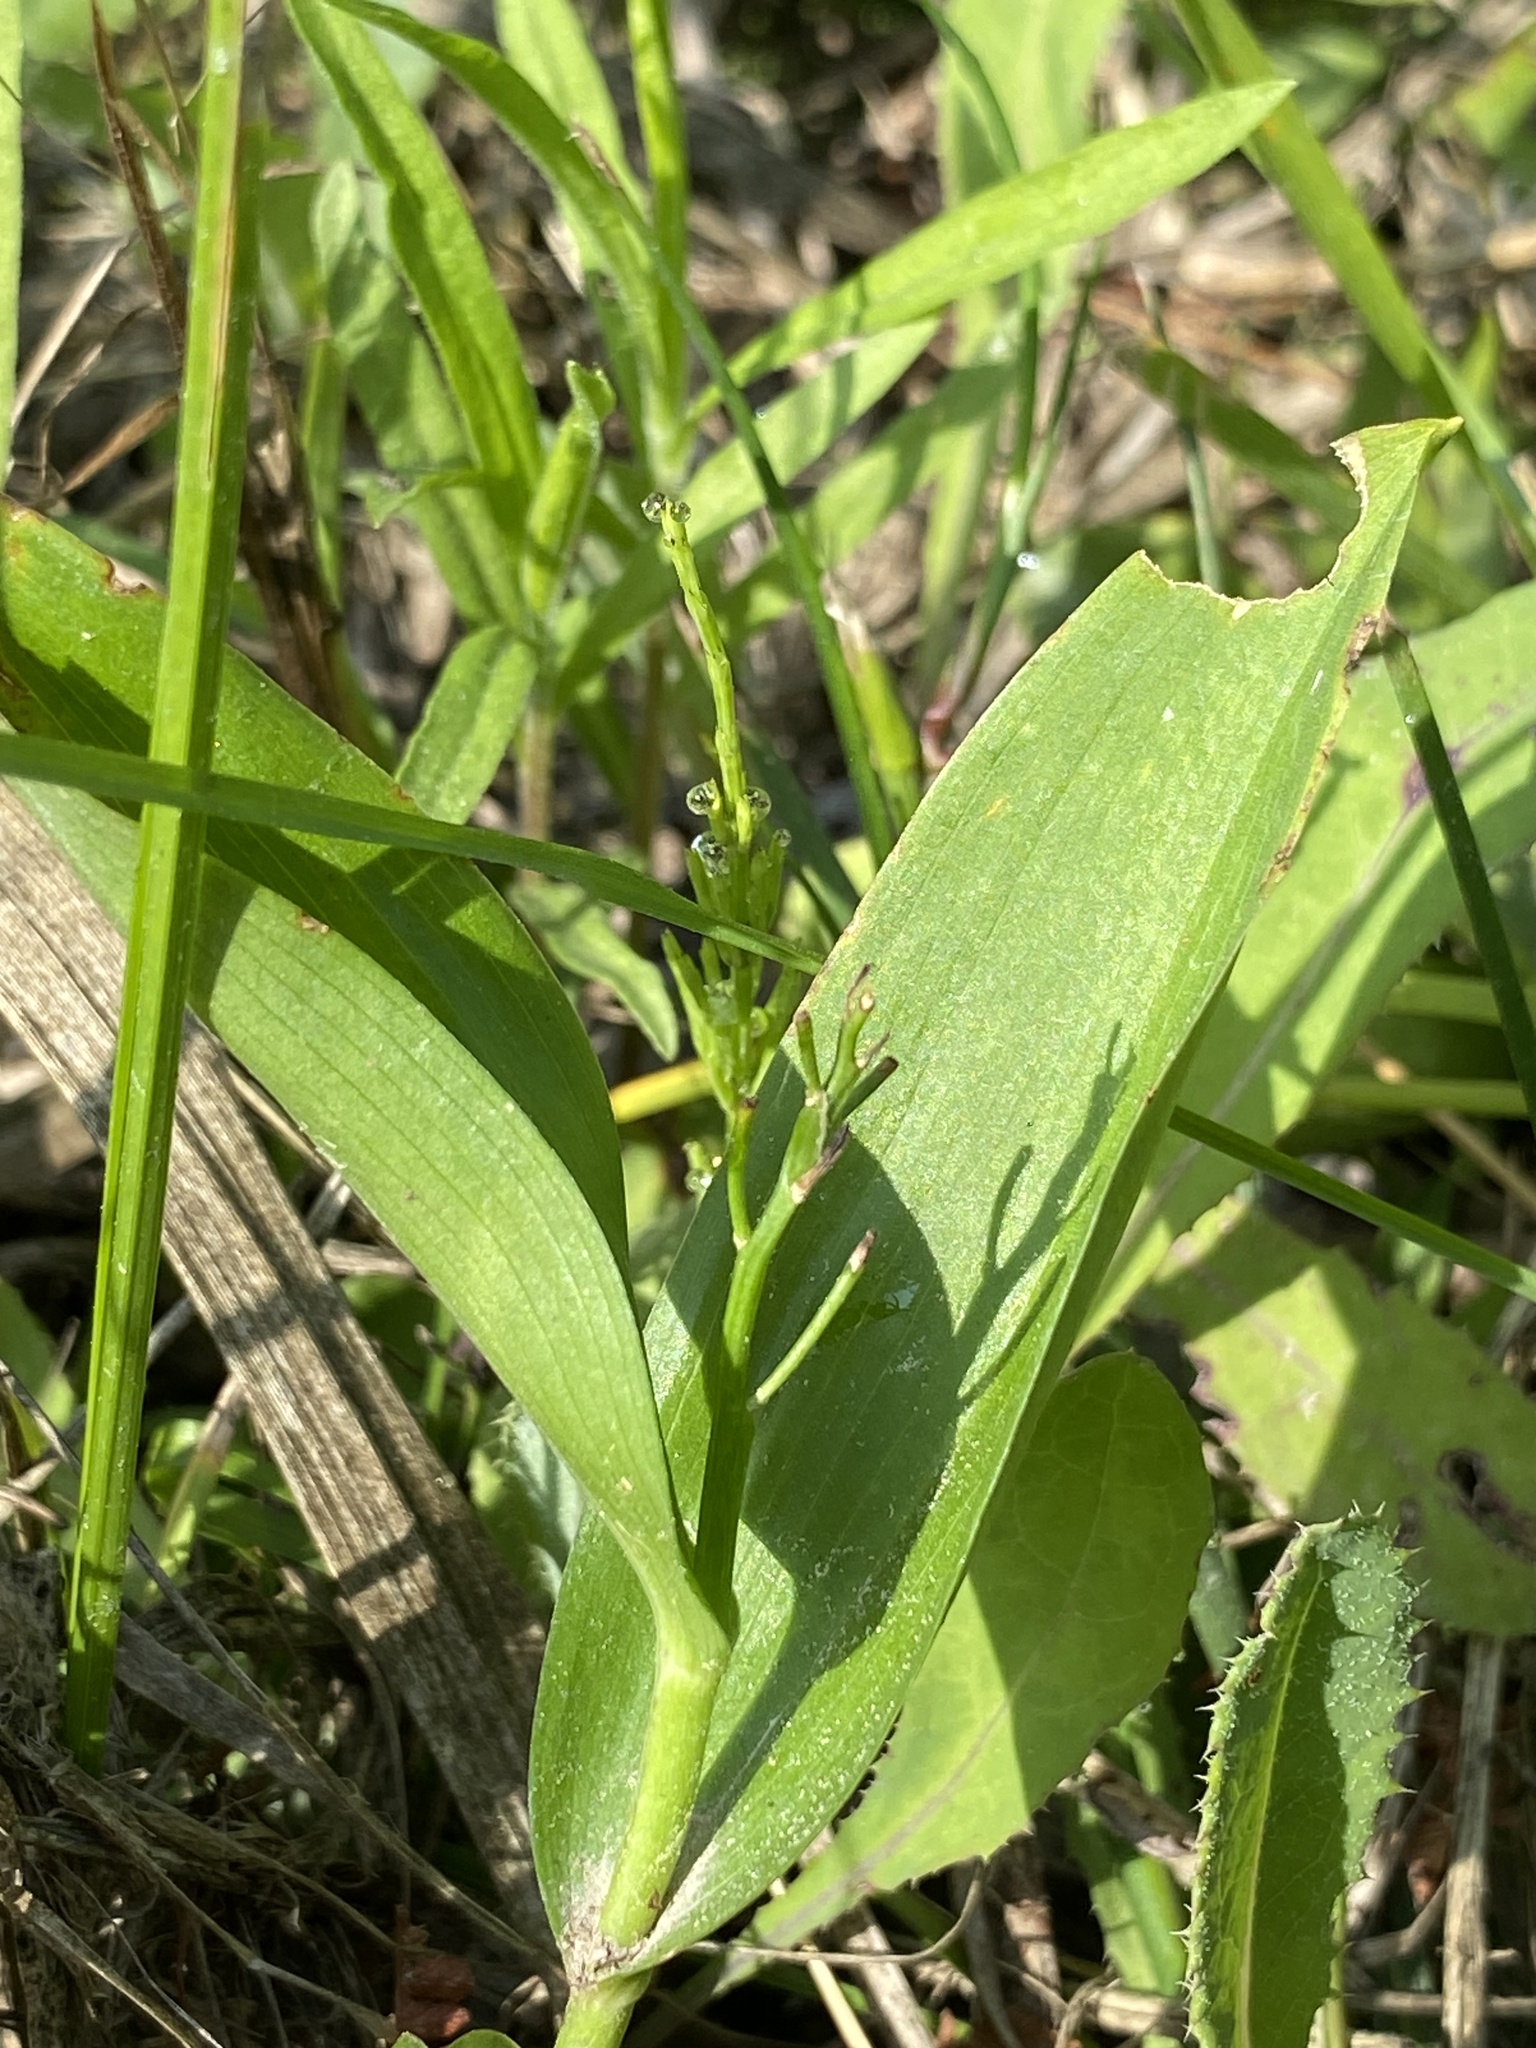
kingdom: Plantae
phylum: Tracheophyta
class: Liliopsida
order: Asparagales
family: Asparagaceae
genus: Maianthemum
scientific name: Maianthemum trifolium
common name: Swamp false solomon's seal
